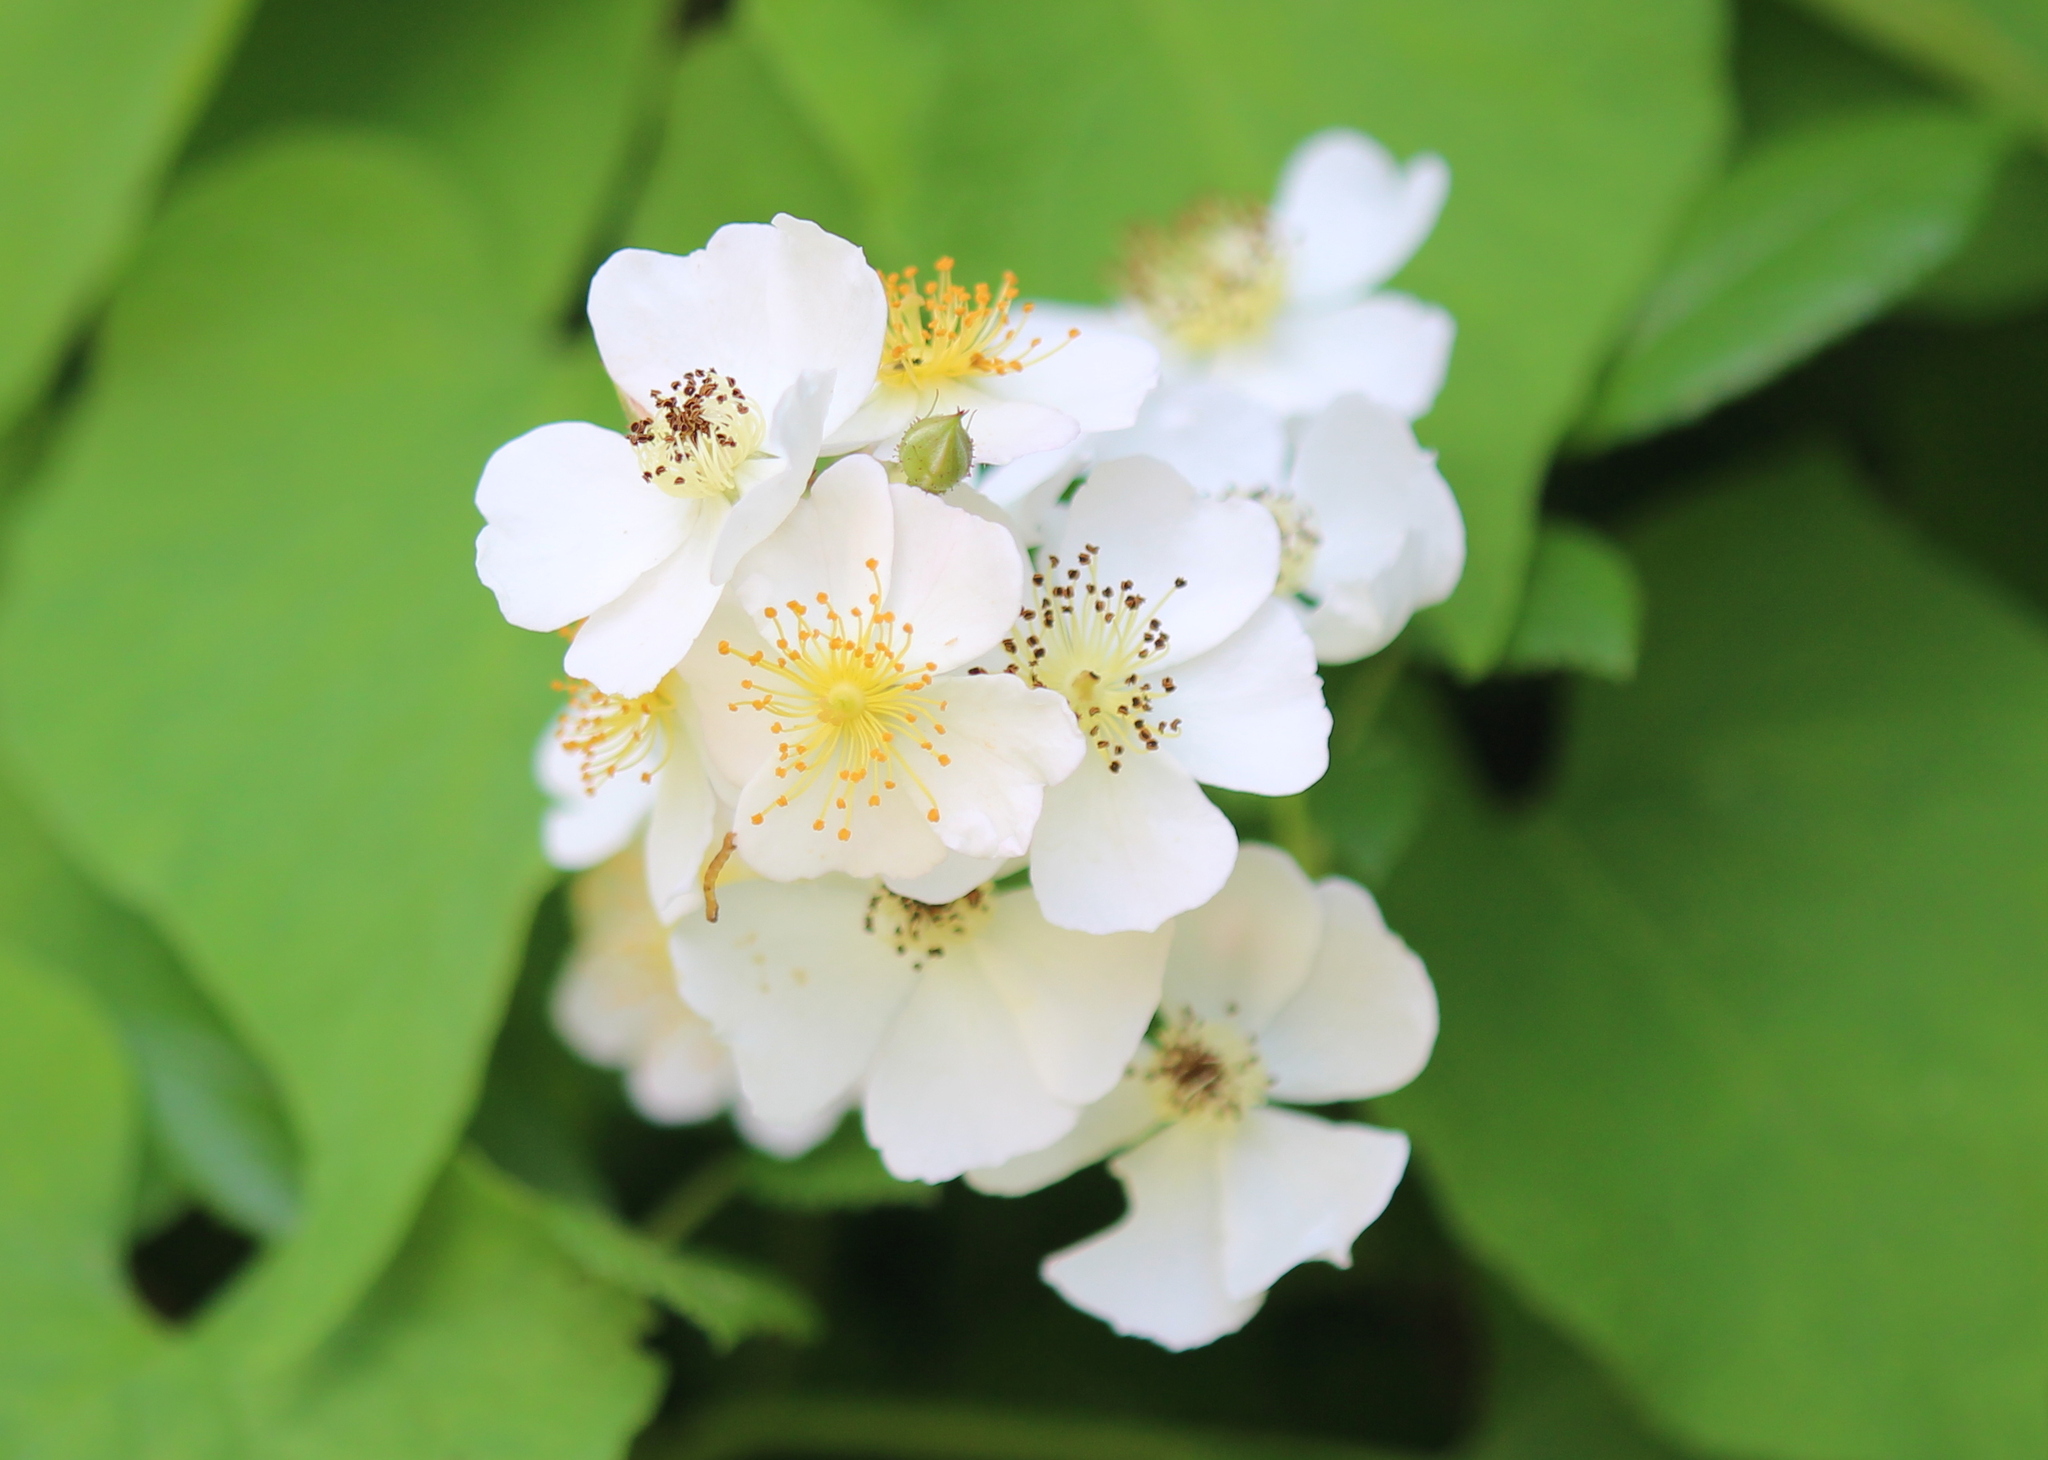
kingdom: Plantae
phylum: Tracheophyta
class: Magnoliopsida
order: Rosales
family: Rosaceae
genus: Rosa
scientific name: Rosa multiflora
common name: Multiflora rose
